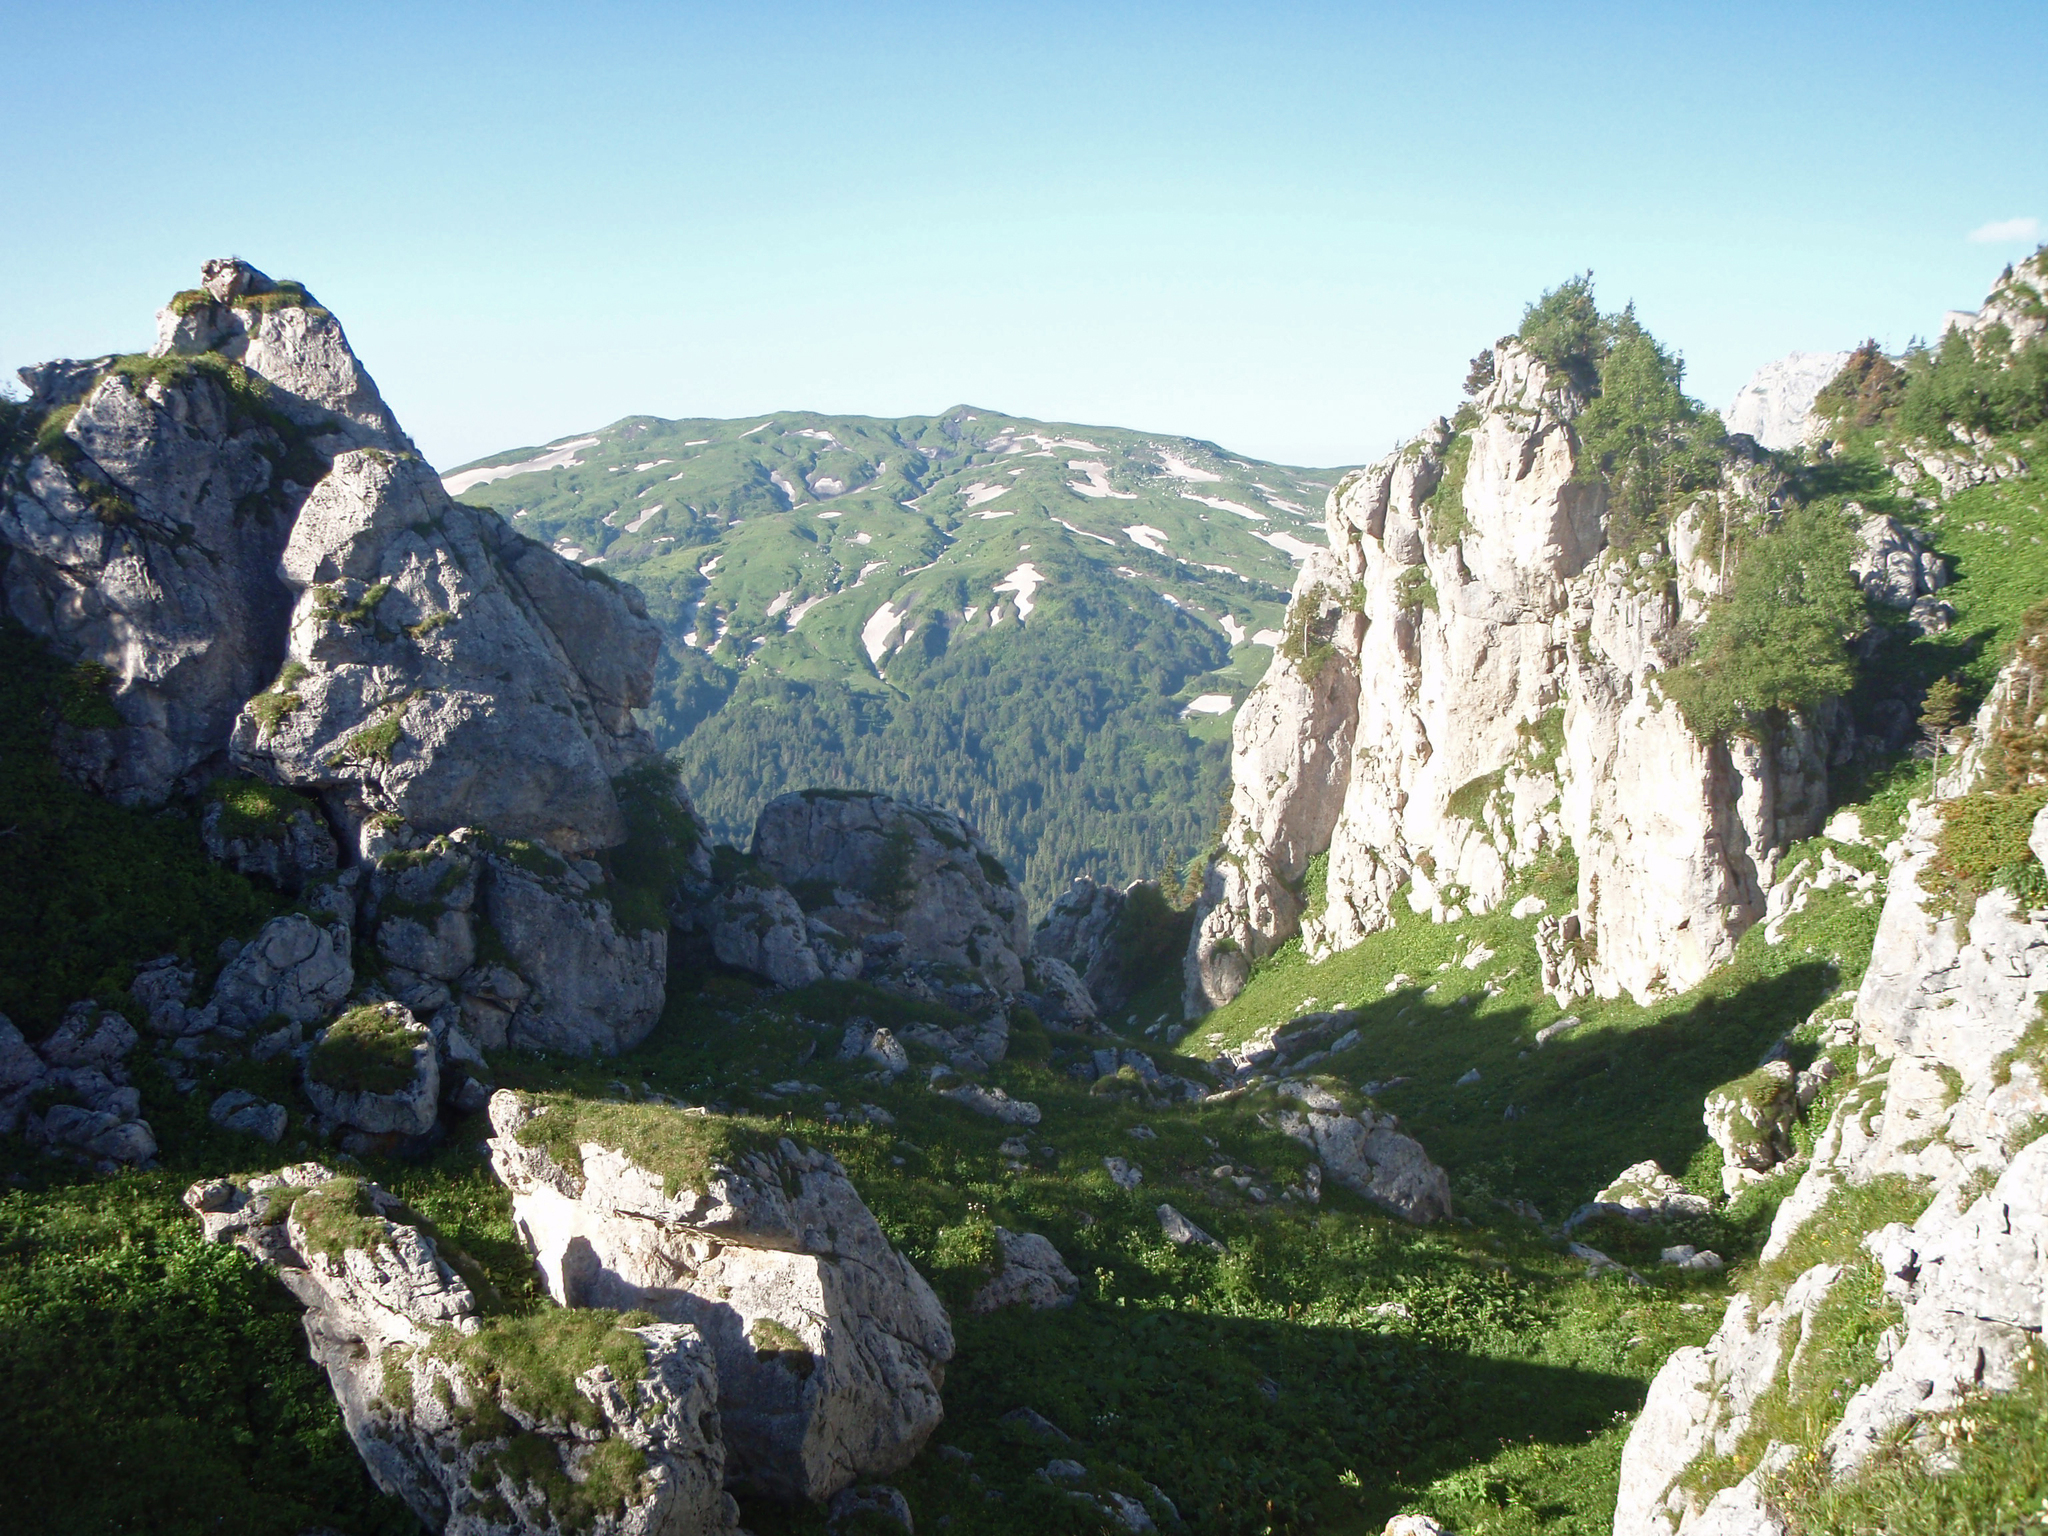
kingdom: Plantae
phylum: Tracheophyta
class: Pinopsida
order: Pinales
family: Pinaceae
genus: Pinus
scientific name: Pinus sylvestris
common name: Scots pine
